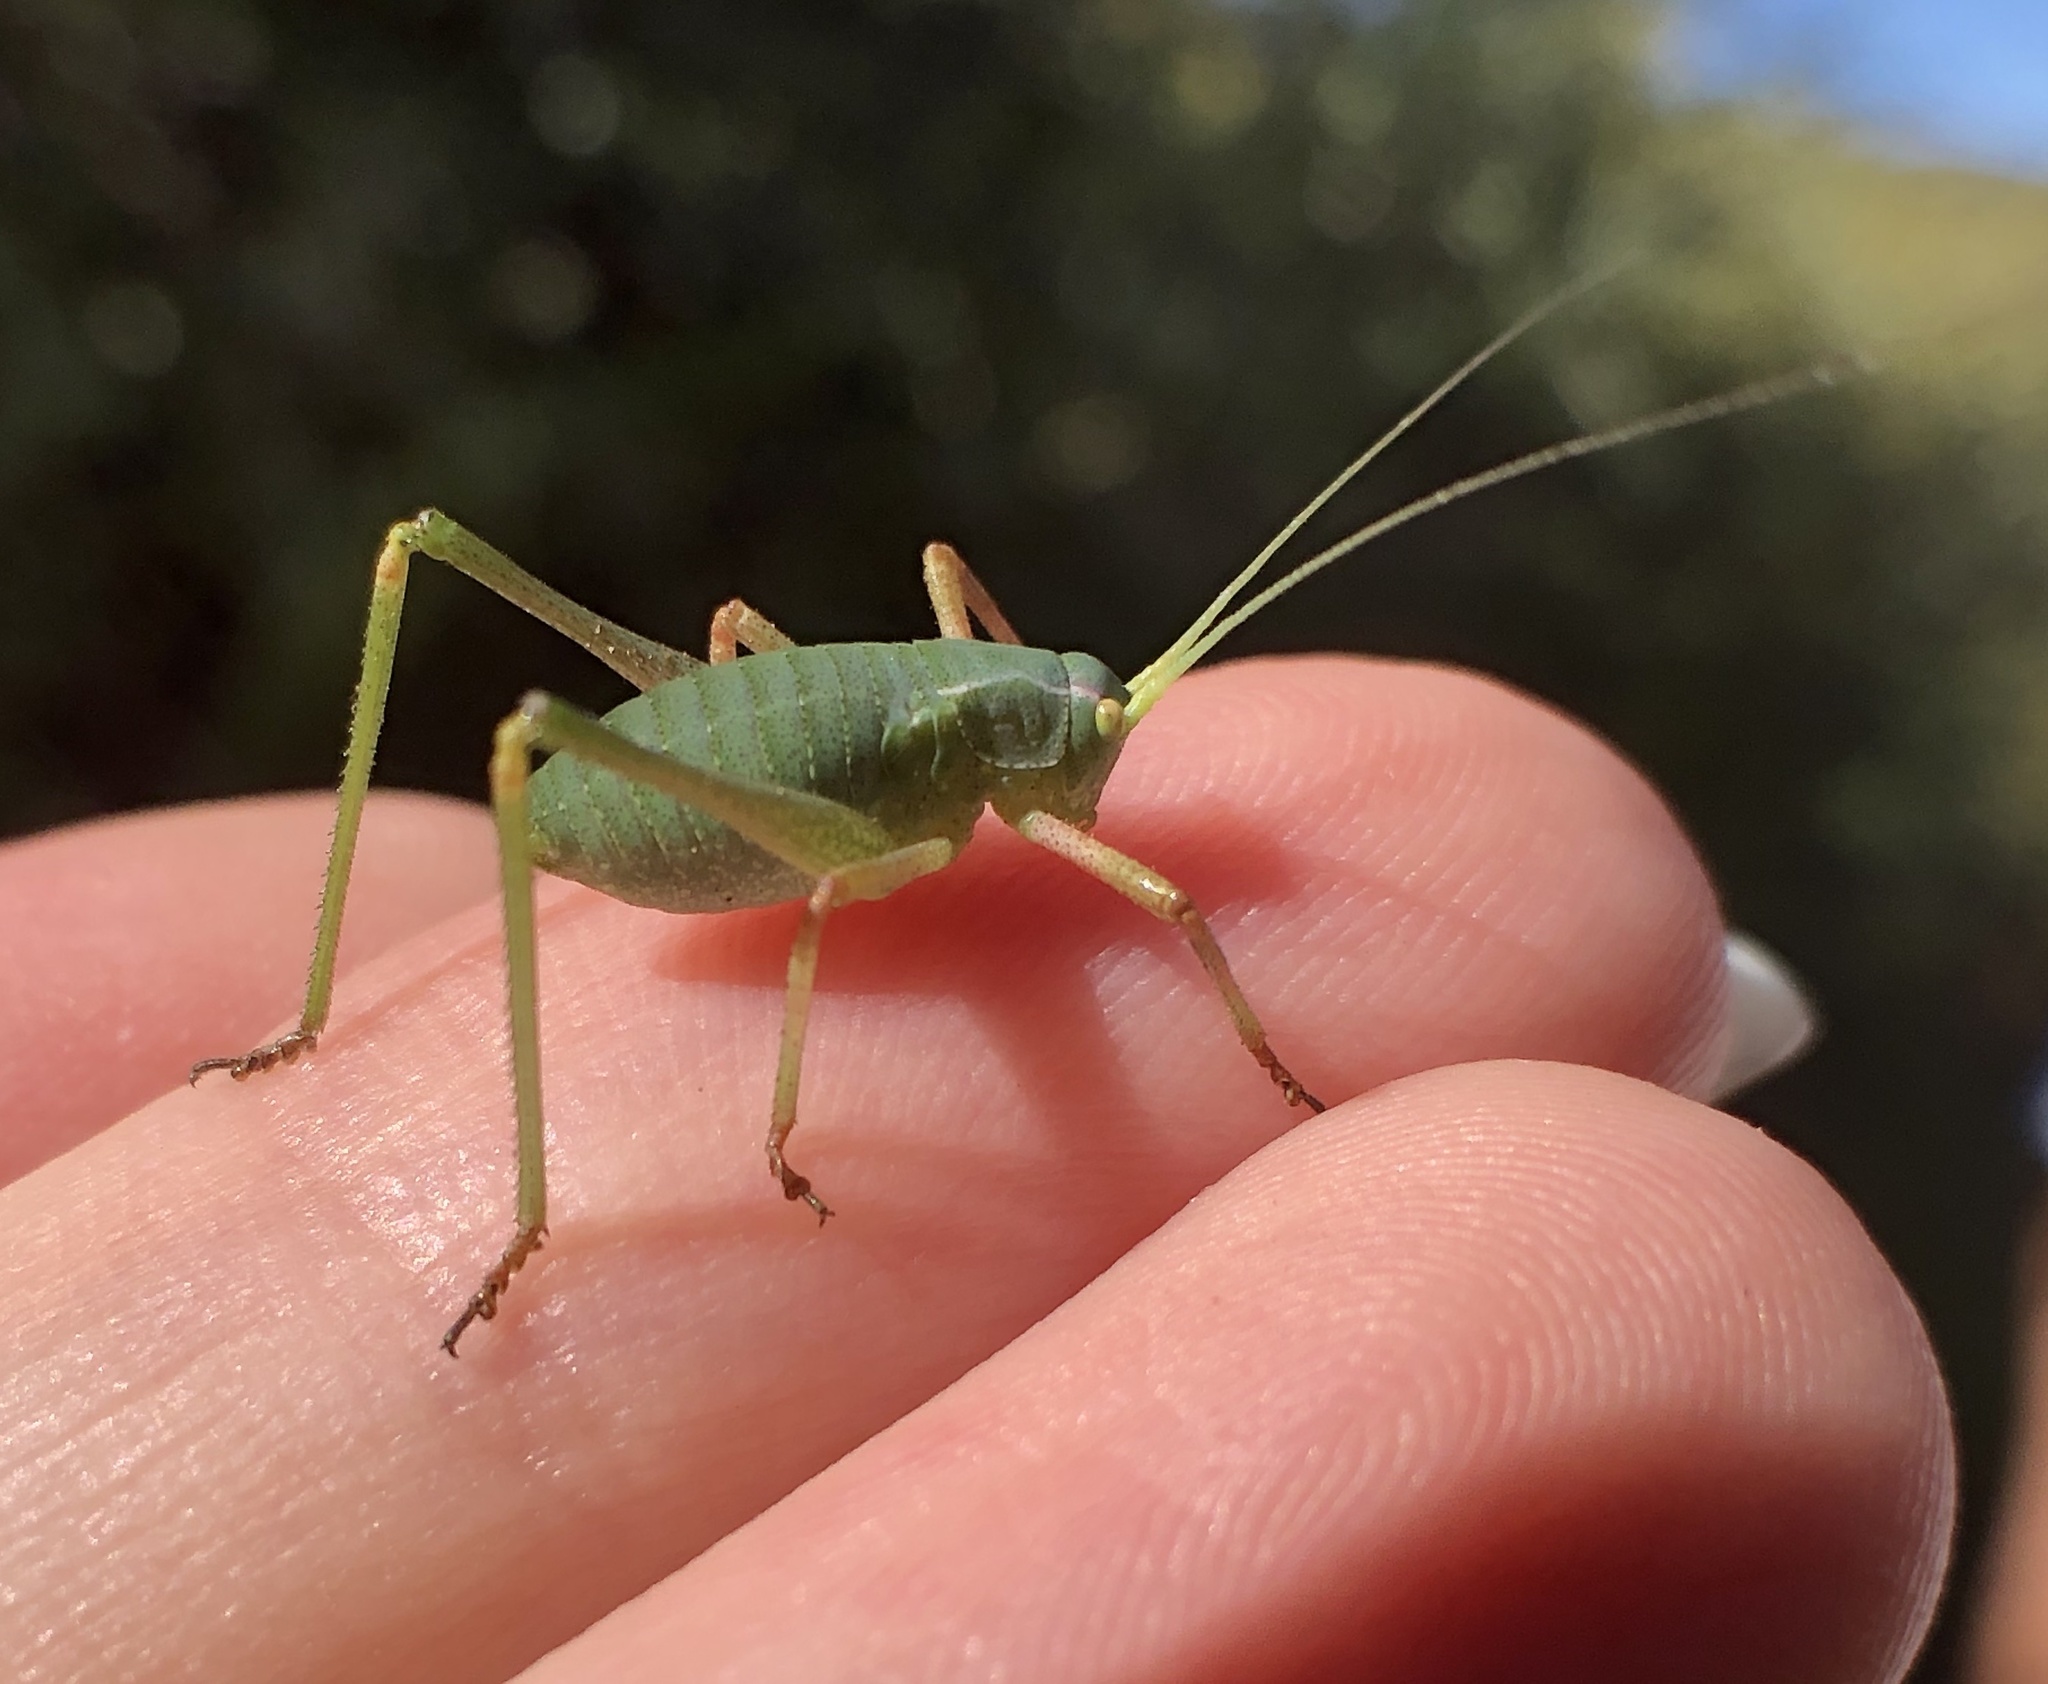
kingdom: Animalia
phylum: Arthropoda
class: Insecta
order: Orthoptera
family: Tettigoniidae
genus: Platylyra
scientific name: Platylyra californica
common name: Chaparral false katydid
